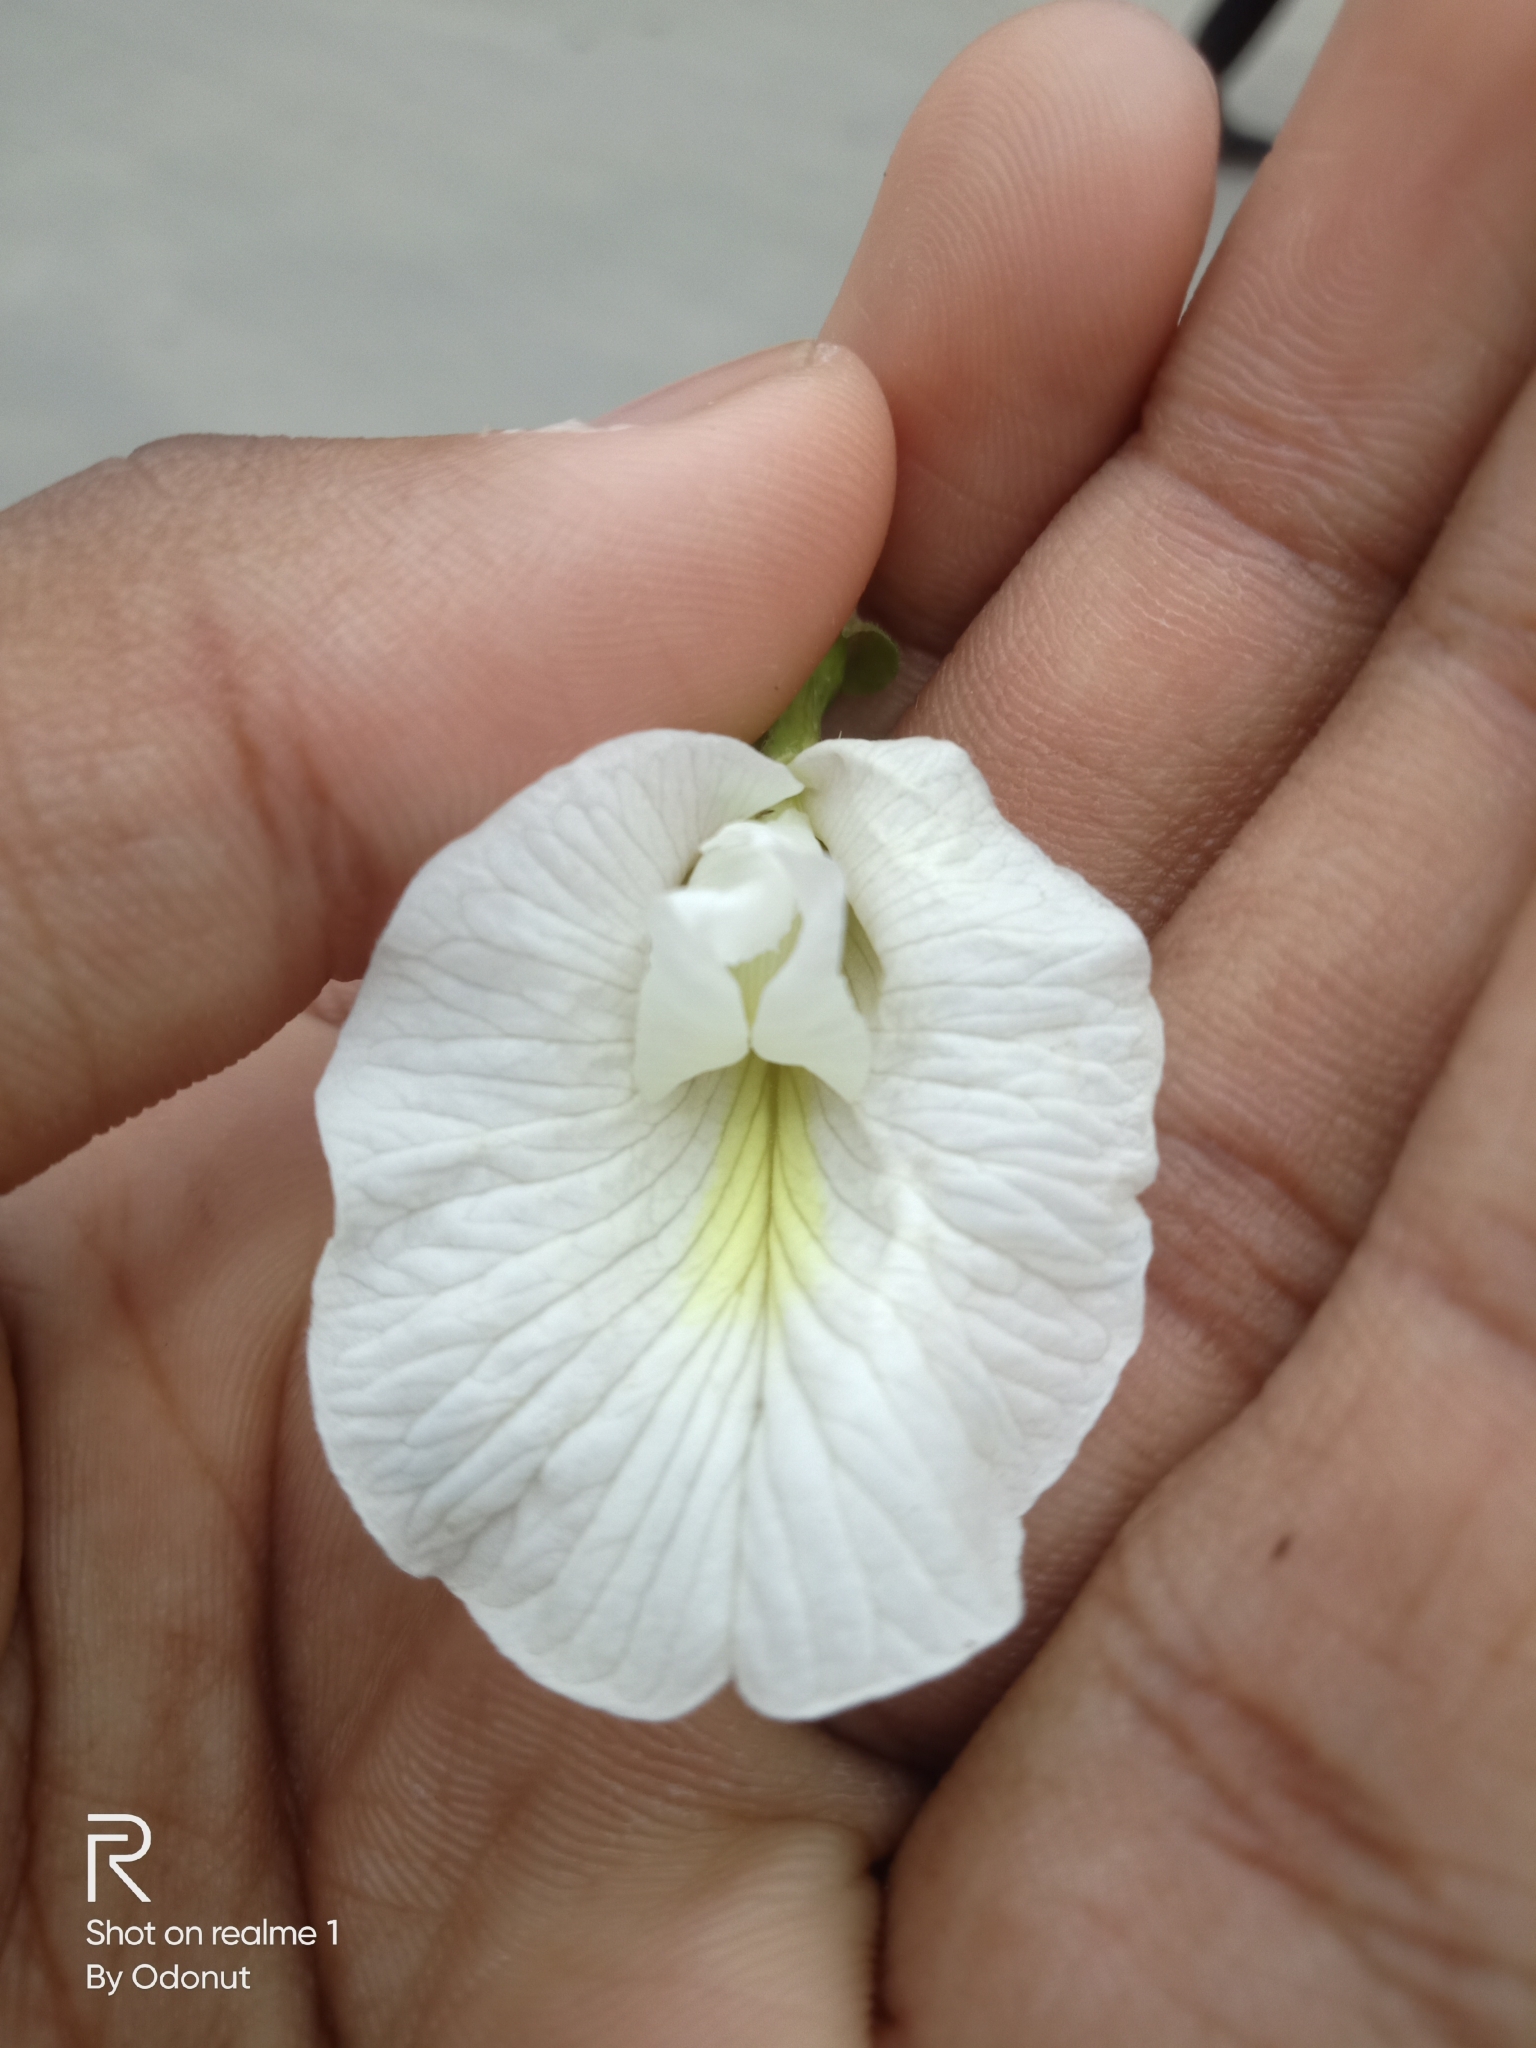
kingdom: Plantae
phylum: Tracheophyta
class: Magnoliopsida
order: Fabales
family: Fabaceae
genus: Clitoria
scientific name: Clitoria ternatea
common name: Asian pigeonwings
